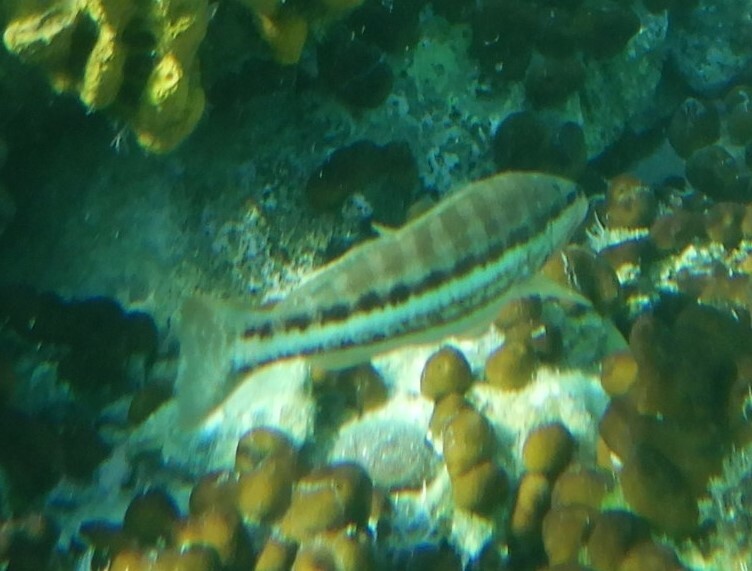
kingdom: Animalia
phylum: Chordata
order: Perciformes
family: Serranidae
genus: Serranus
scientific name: Serranus cabrilla
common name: Comber
